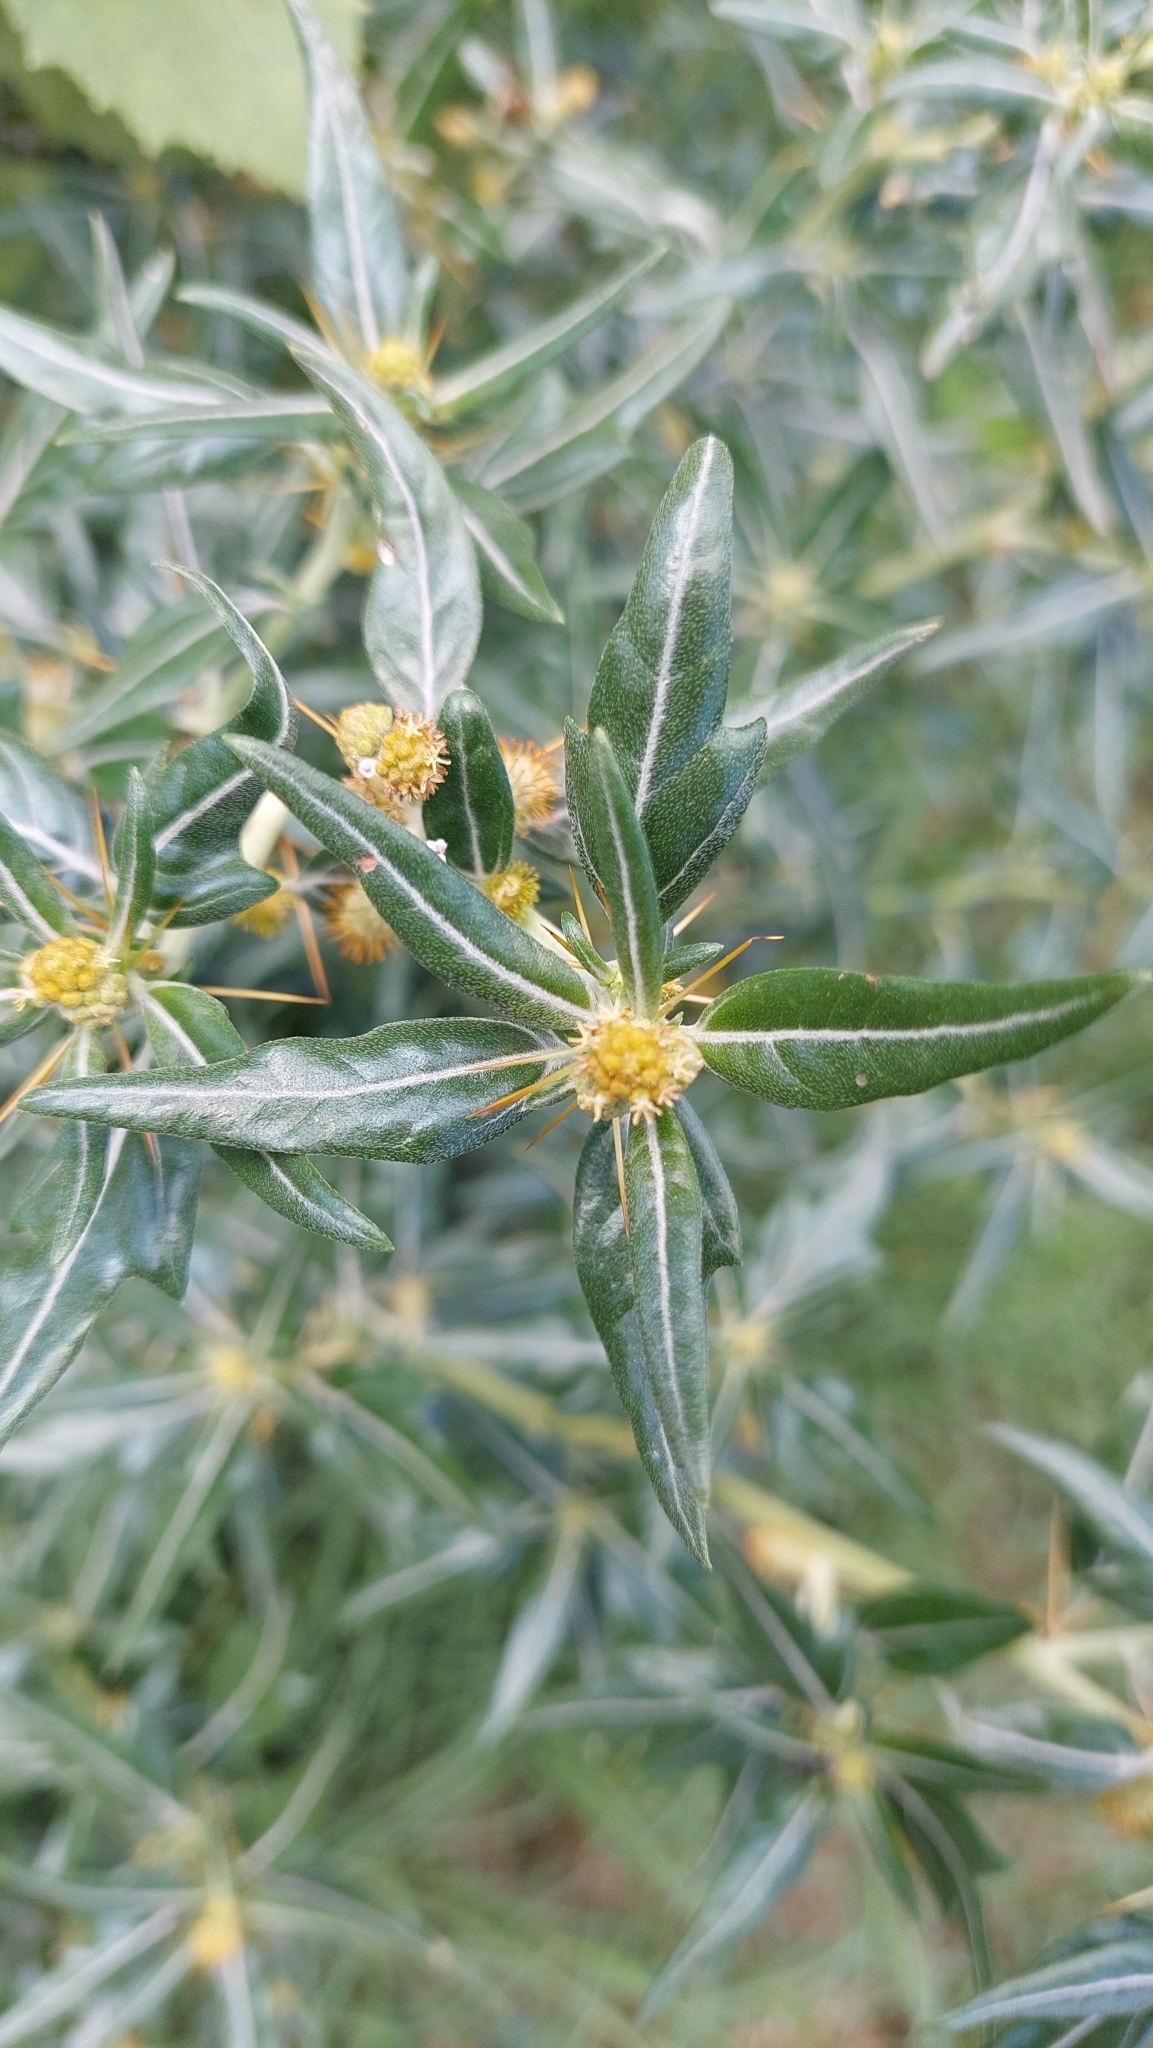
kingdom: Plantae
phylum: Tracheophyta
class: Magnoliopsida
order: Asterales
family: Asteraceae
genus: Xanthium
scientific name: Xanthium spinosum
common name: Spiny cocklebur
